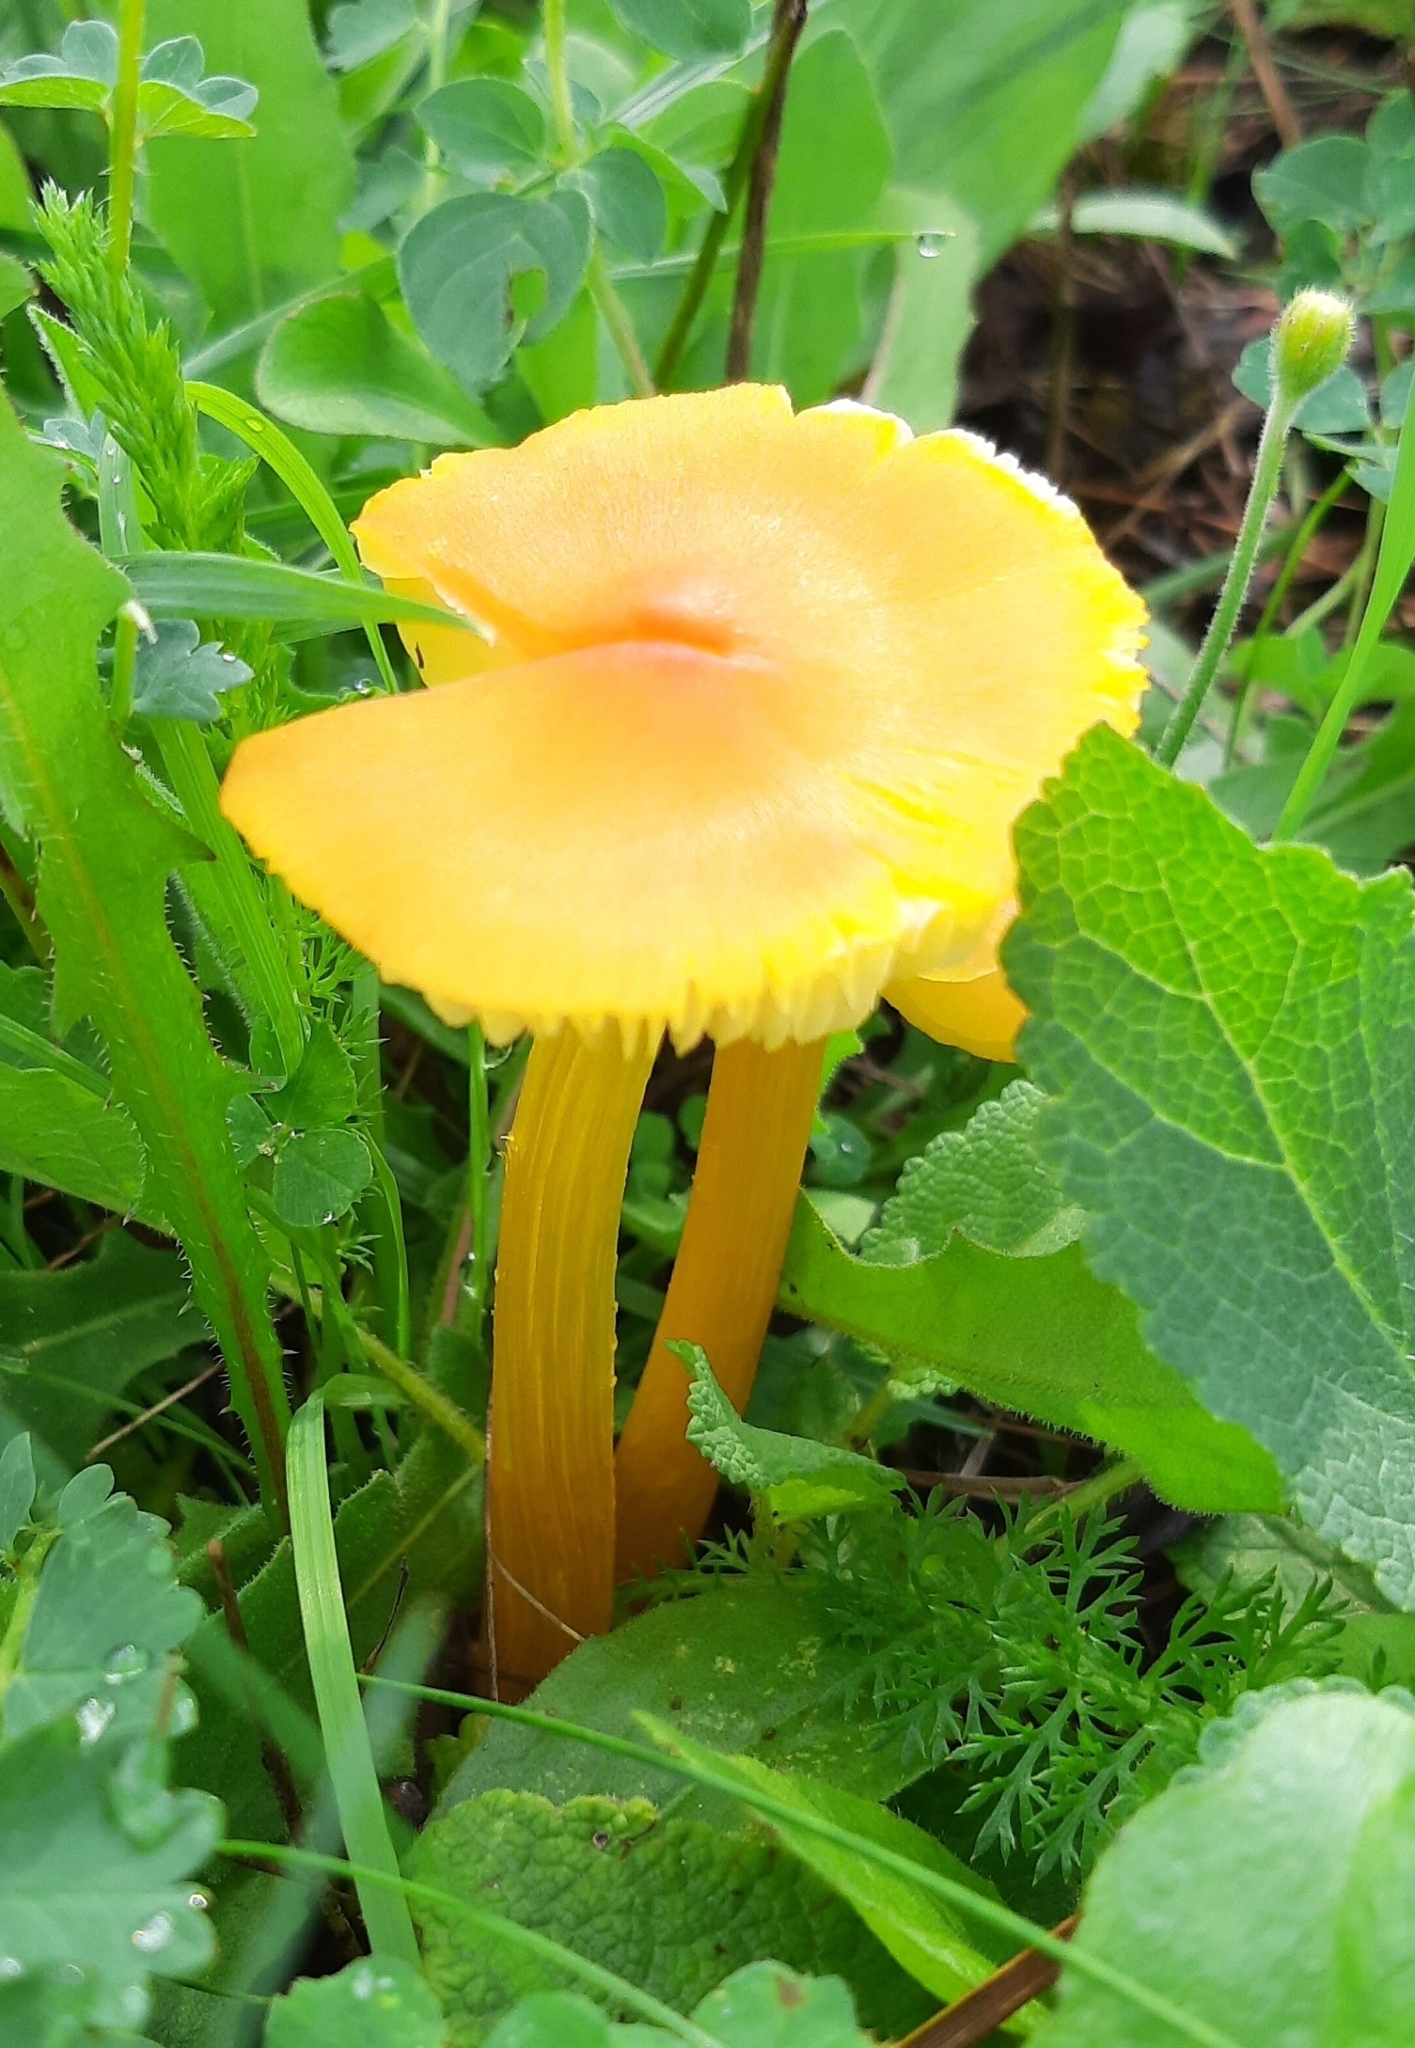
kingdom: Fungi
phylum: Basidiomycota
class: Agaricomycetes
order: Agaricales
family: Hygrophoraceae
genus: Hygrocybe
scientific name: Hygrocybe acutoconica
